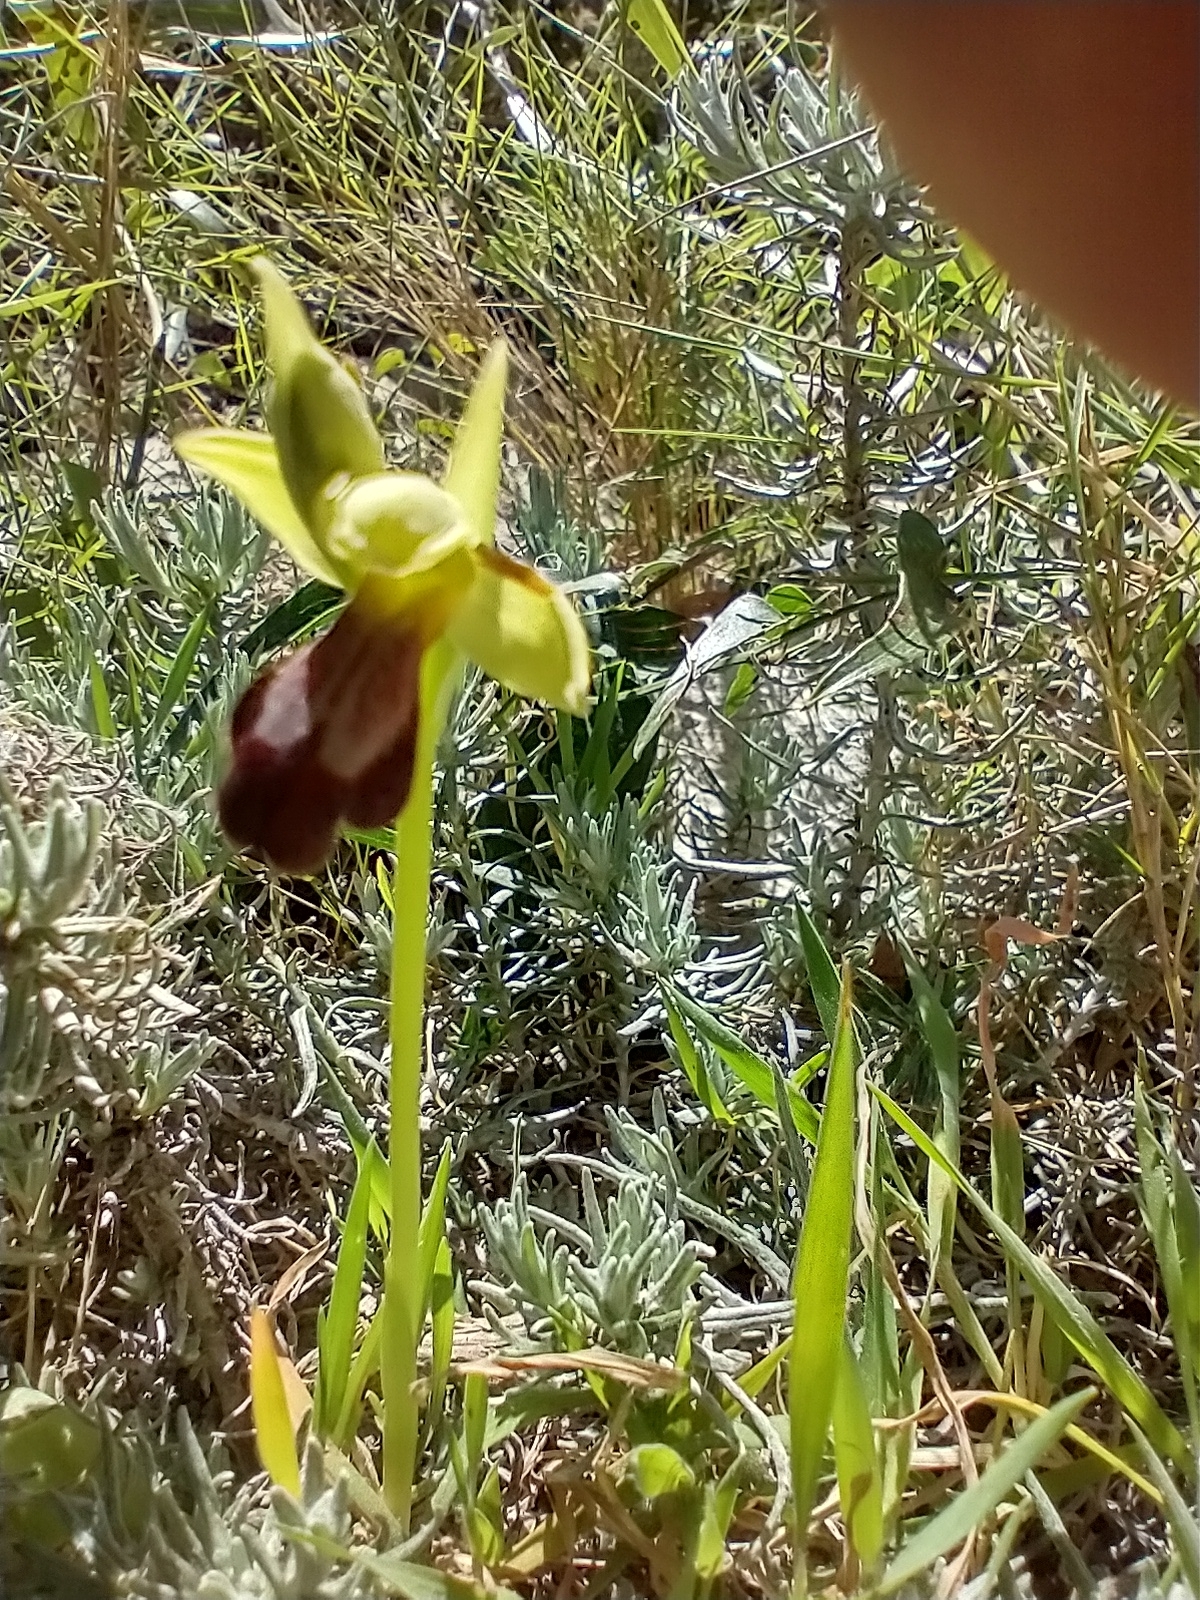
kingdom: Plantae
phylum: Tracheophyta
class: Liliopsida
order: Asparagales
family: Orchidaceae
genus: Ophrys
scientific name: Ophrys fusca
